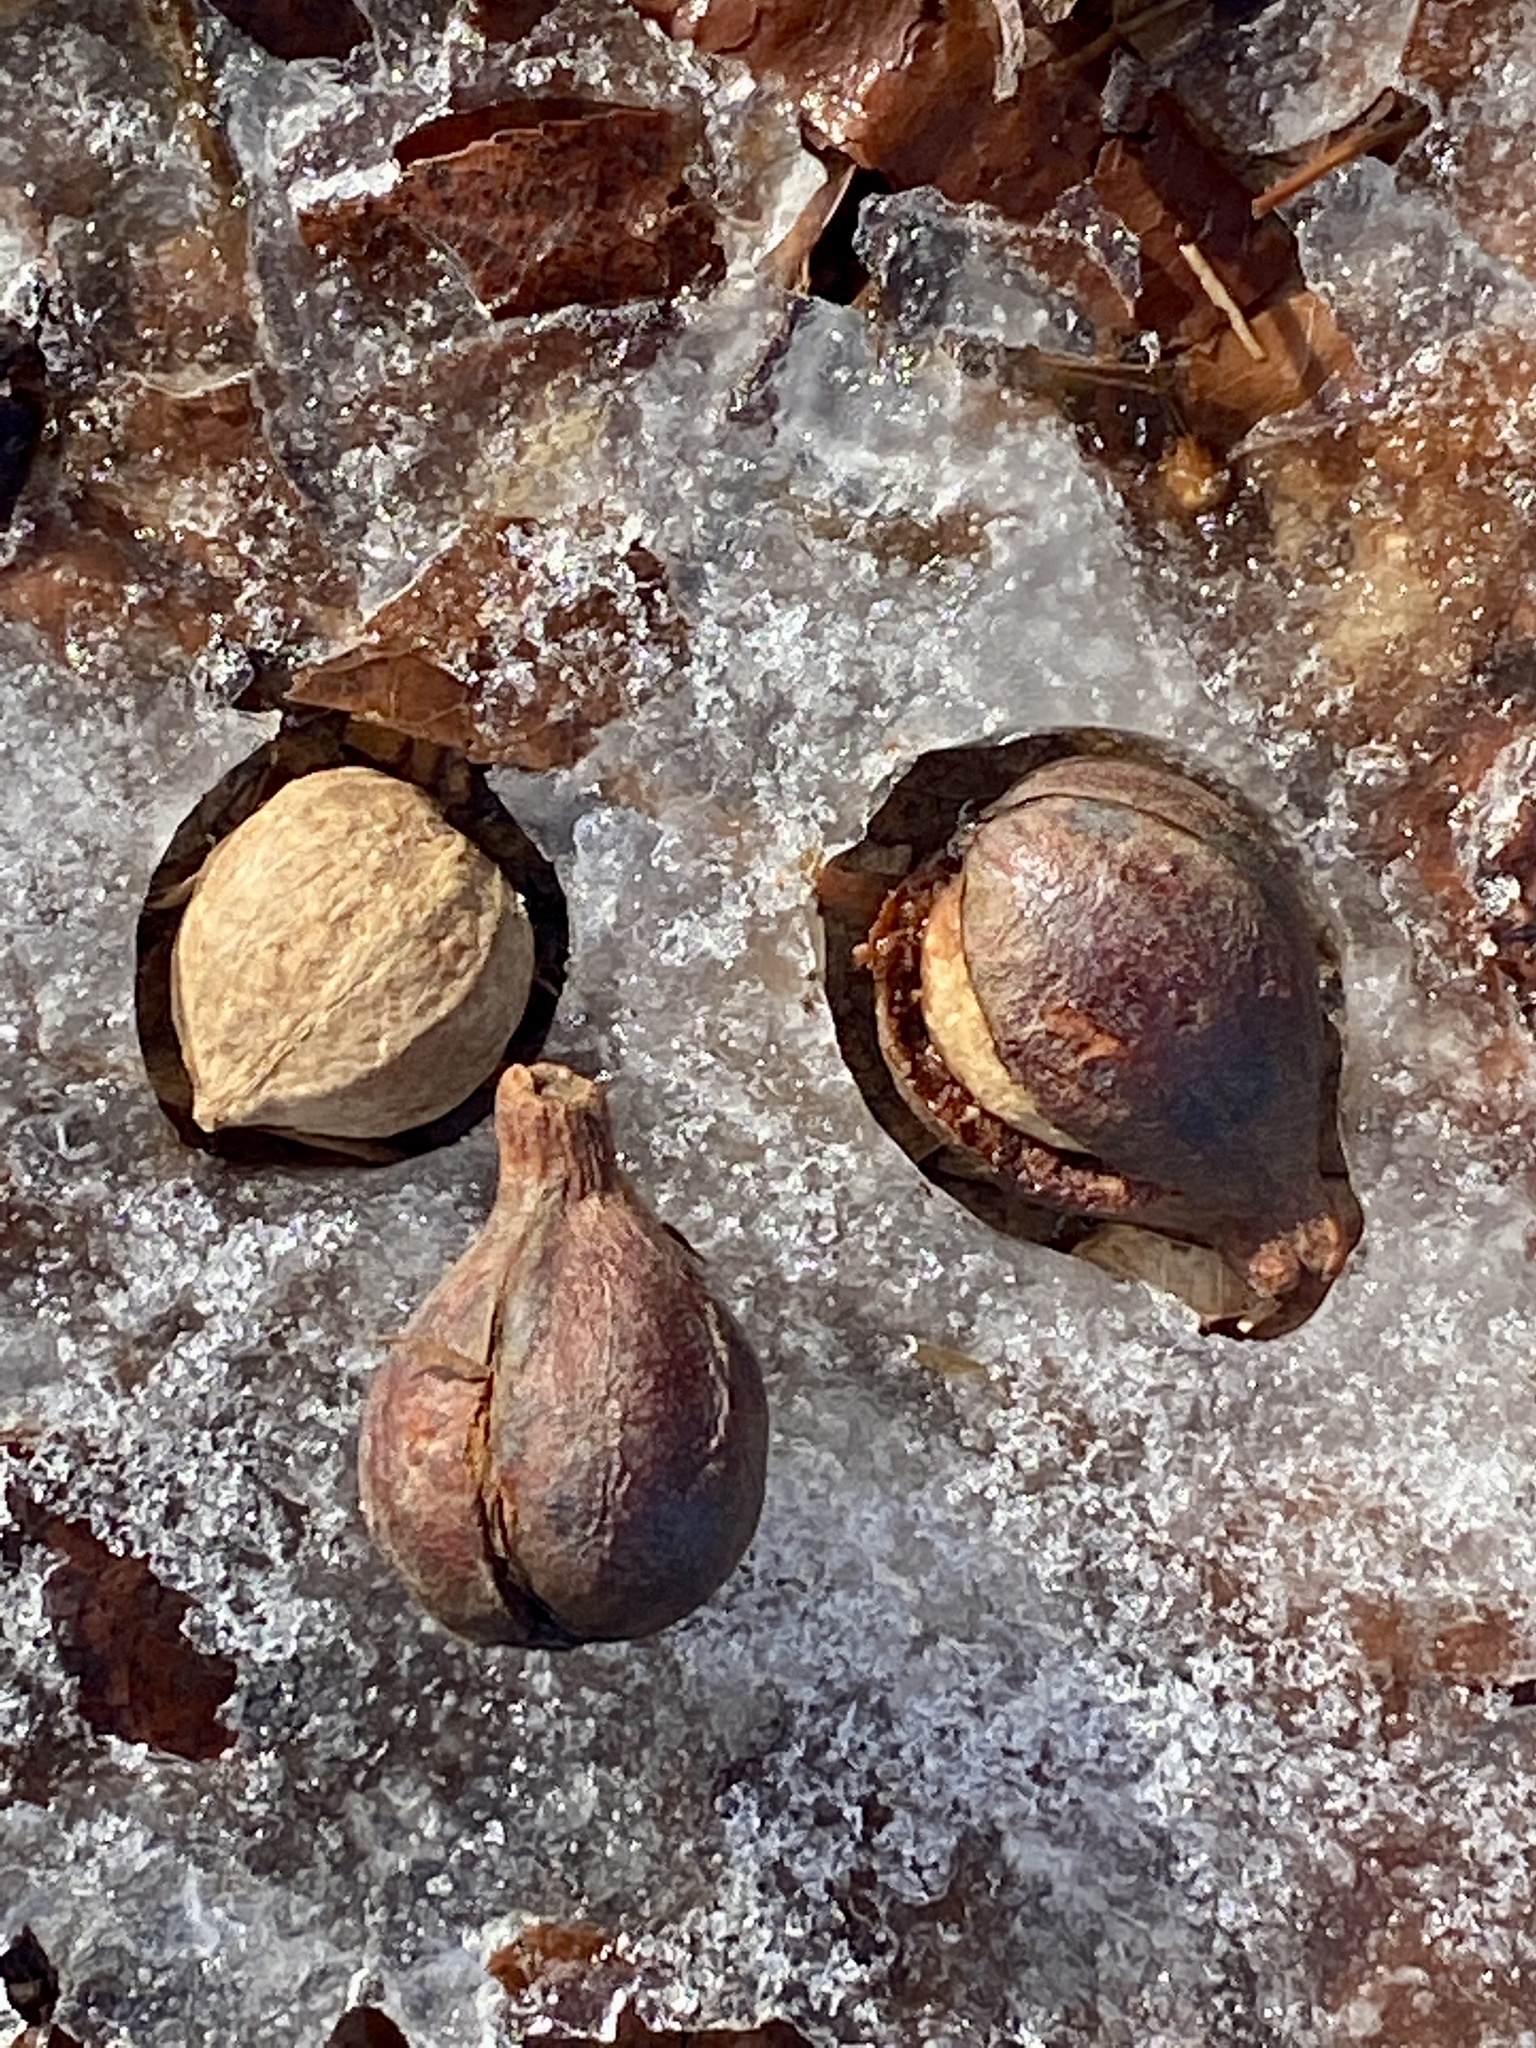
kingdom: Plantae
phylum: Tracheophyta
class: Magnoliopsida
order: Fagales
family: Juglandaceae
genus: Carya
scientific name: Carya glabra
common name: Pignut hickory
